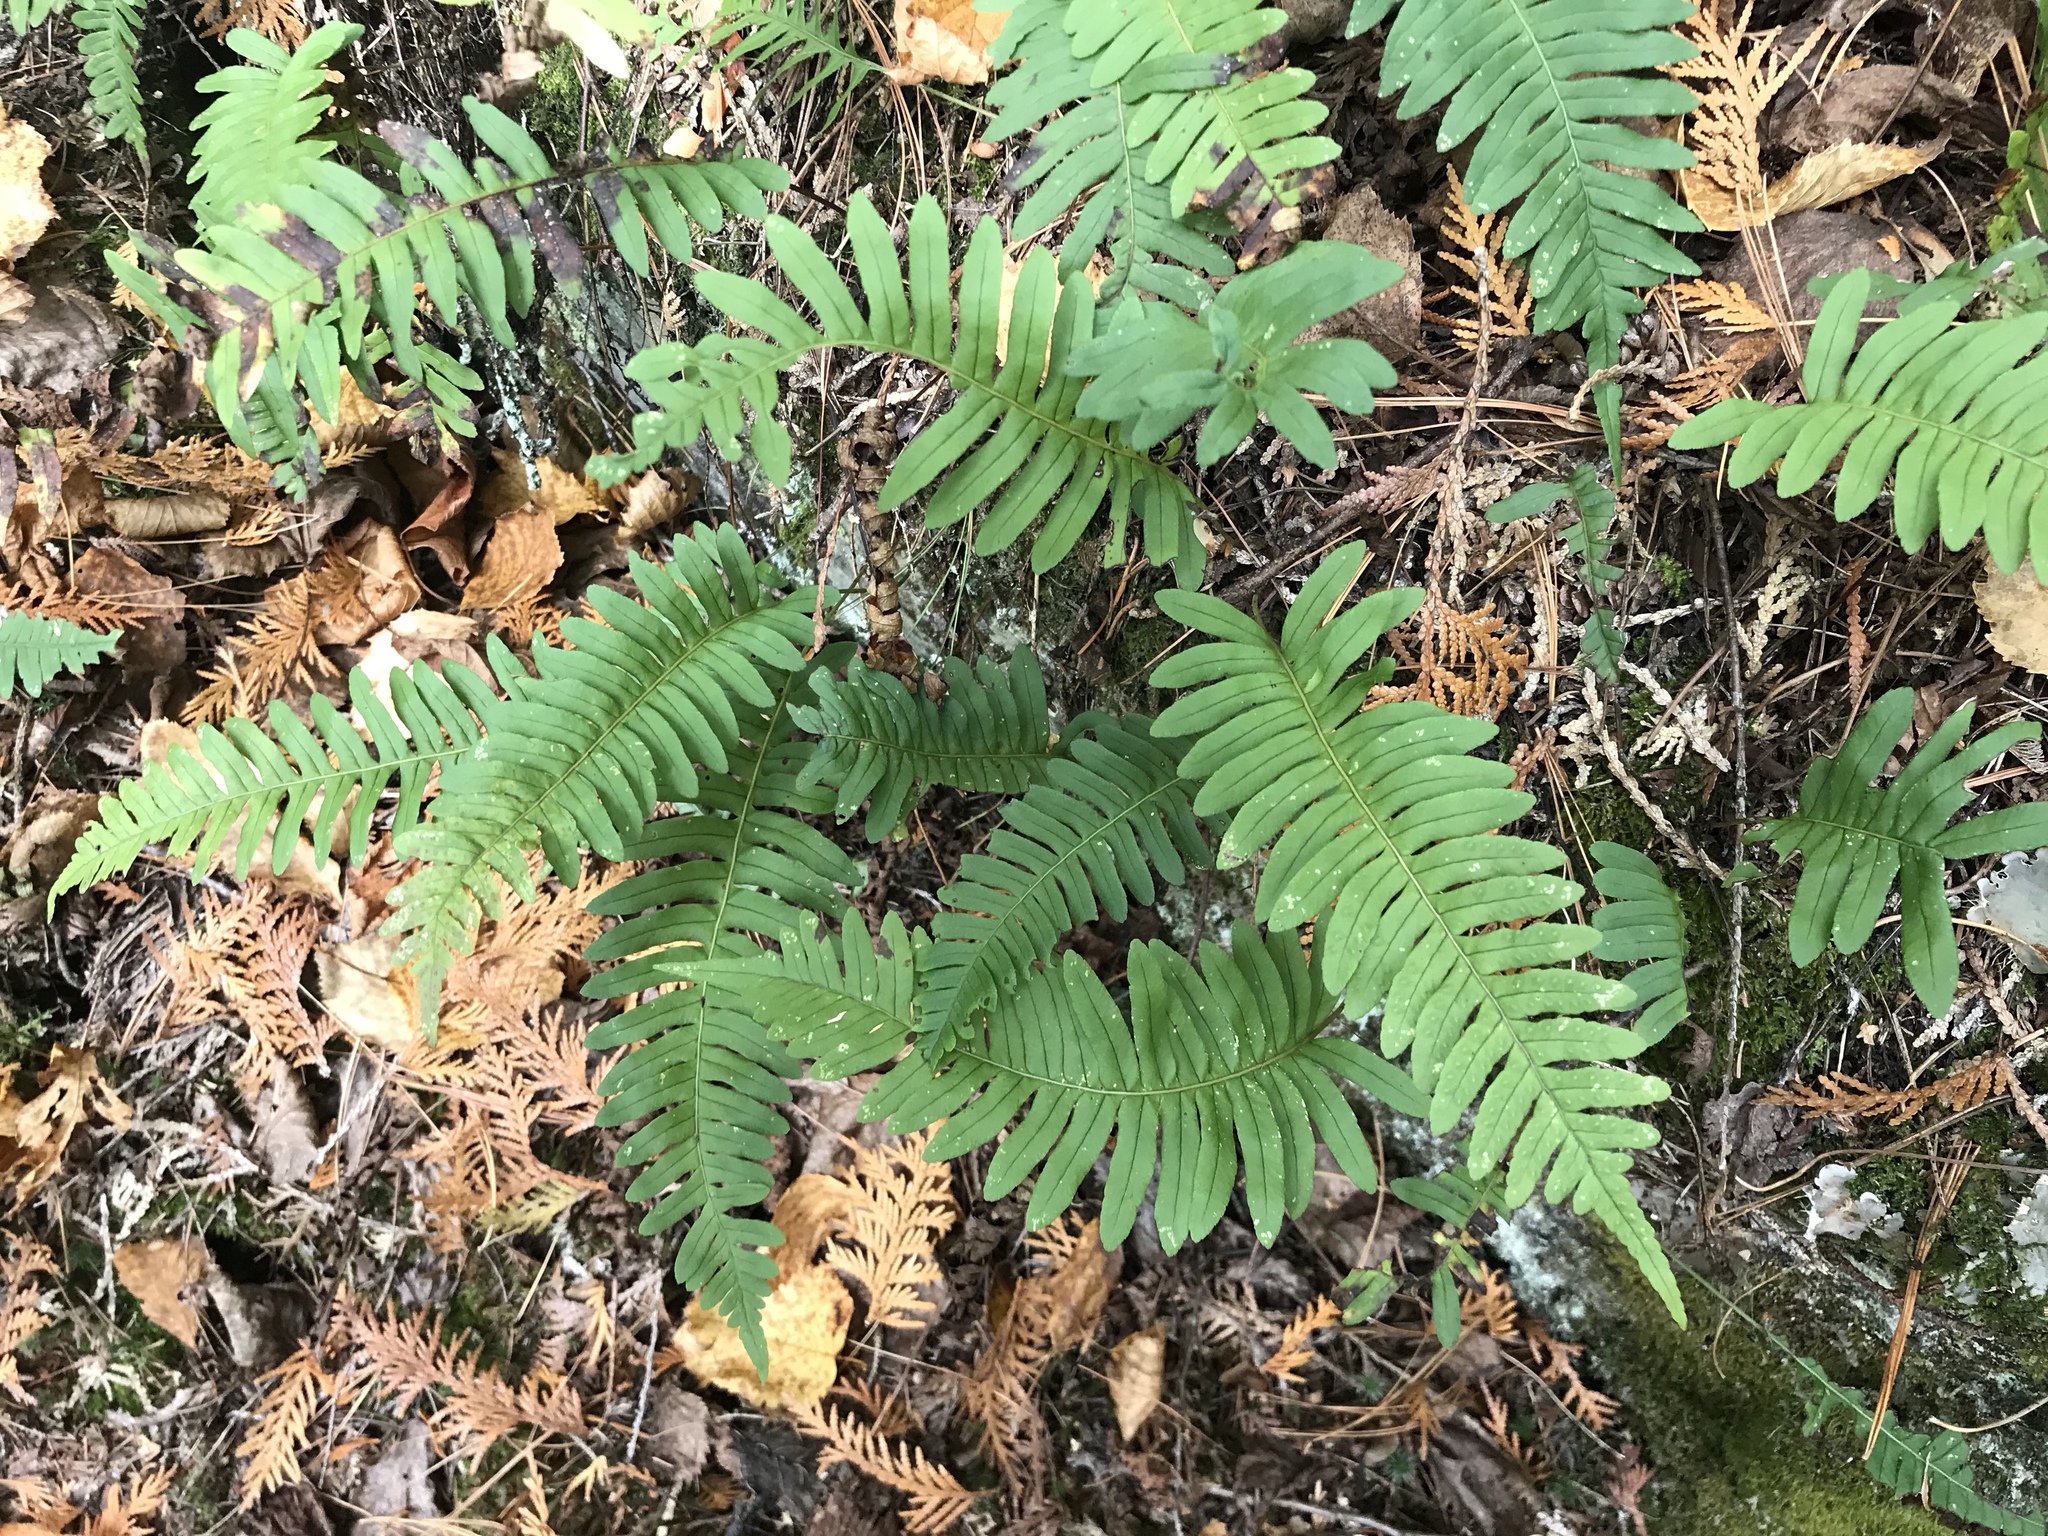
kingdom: Plantae
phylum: Tracheophyta
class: Polypodiopsida
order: Polypodiales
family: Polypodiaceae
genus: Polypodium
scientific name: Polypodium virginianum
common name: American wall fern
